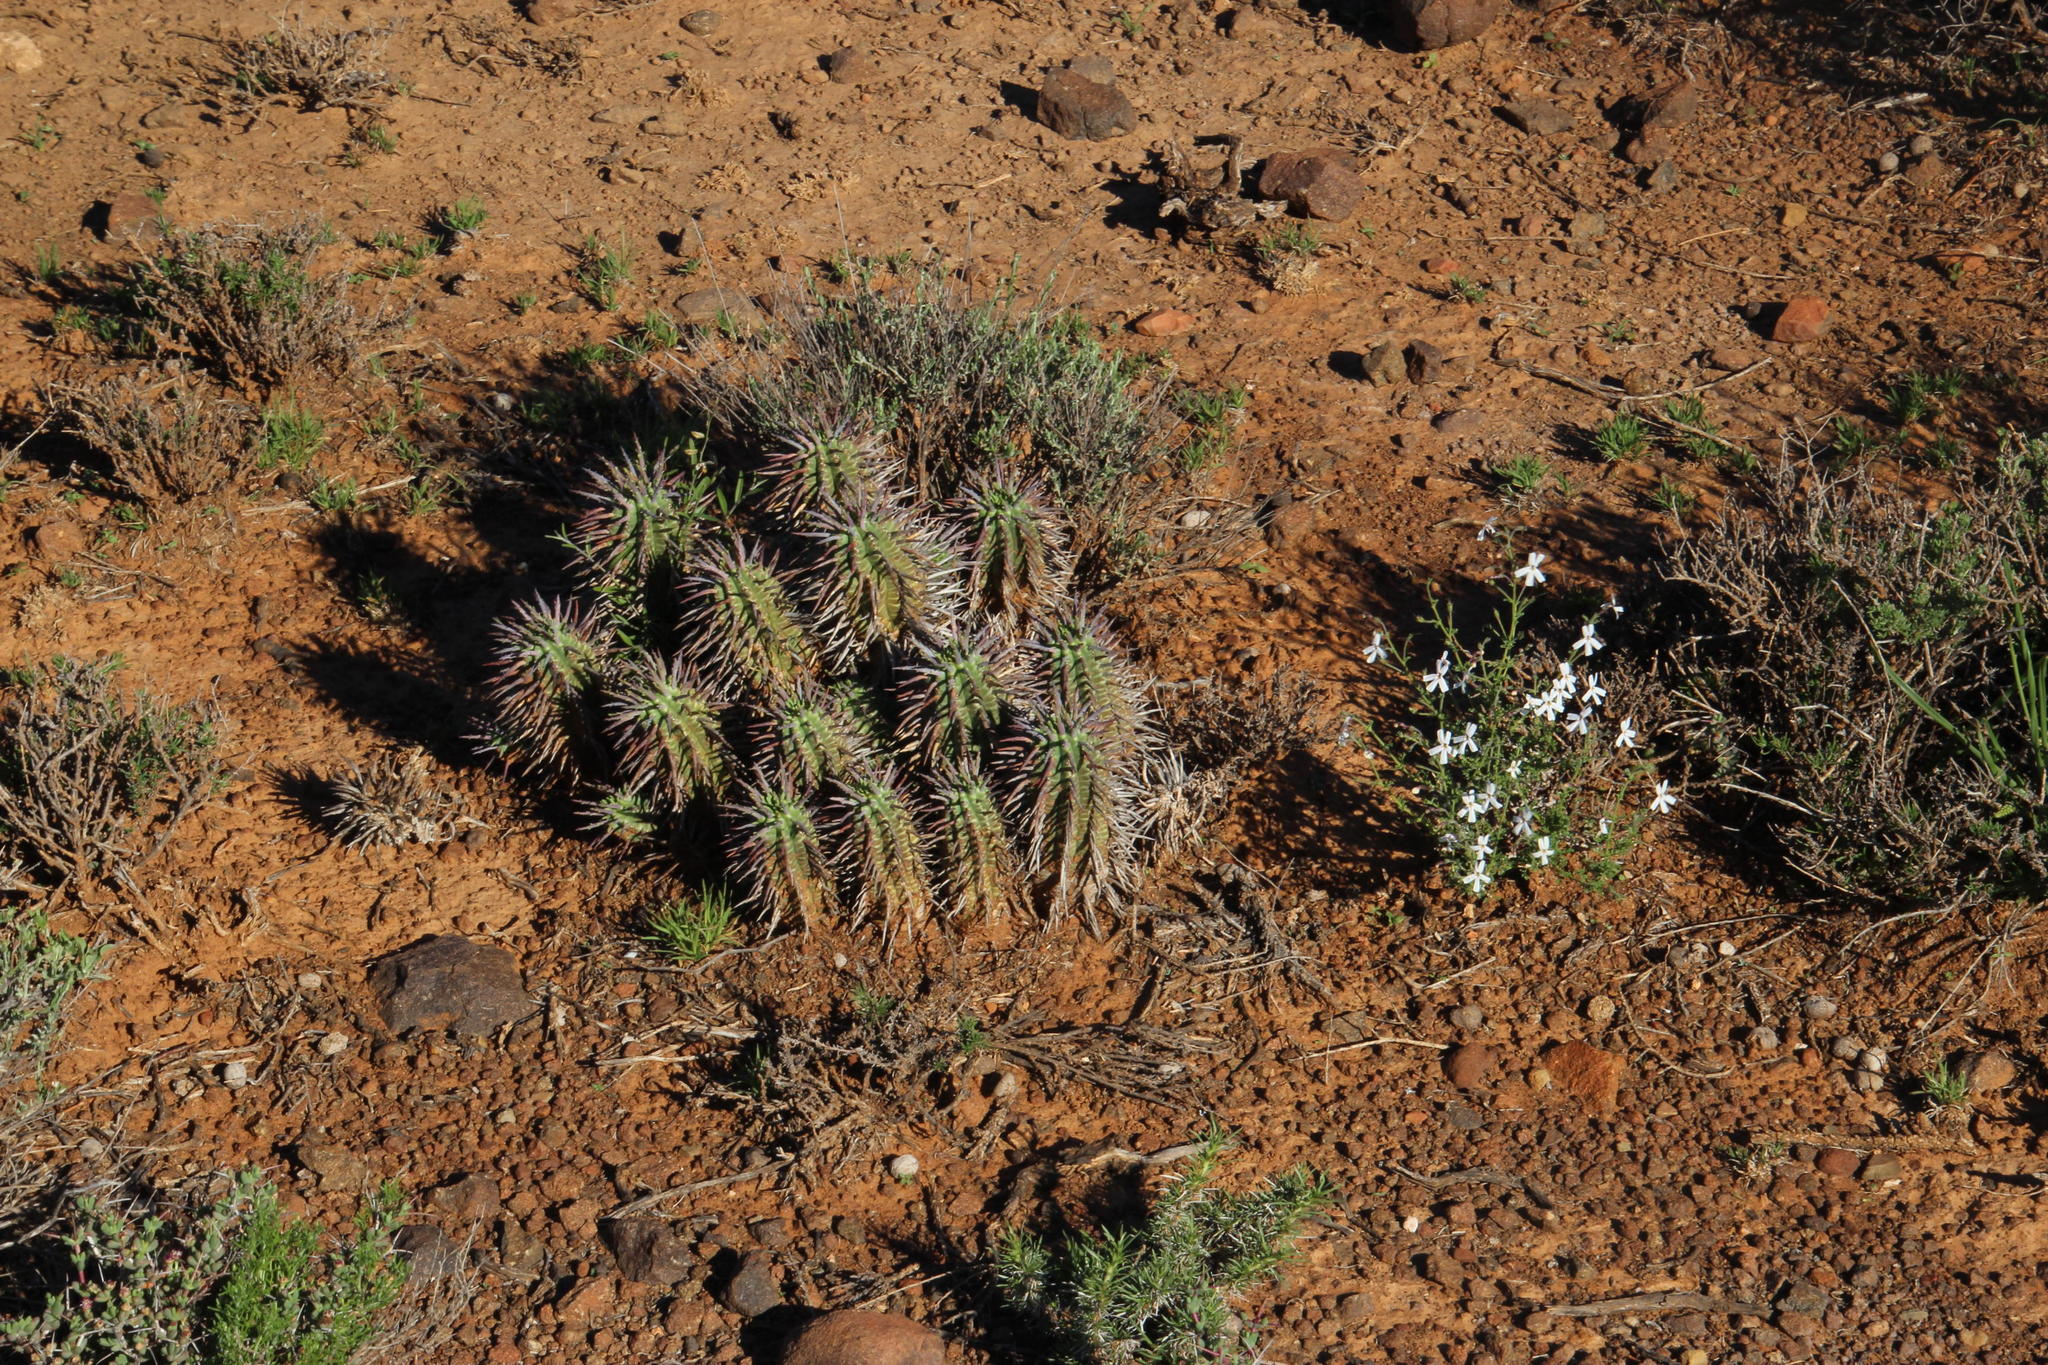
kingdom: Plantae
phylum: Tracheophyta
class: Magnoliopsida
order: Malpighiales
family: Euphorbiaceae
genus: Euphorbia
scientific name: Euphorbia ferox
